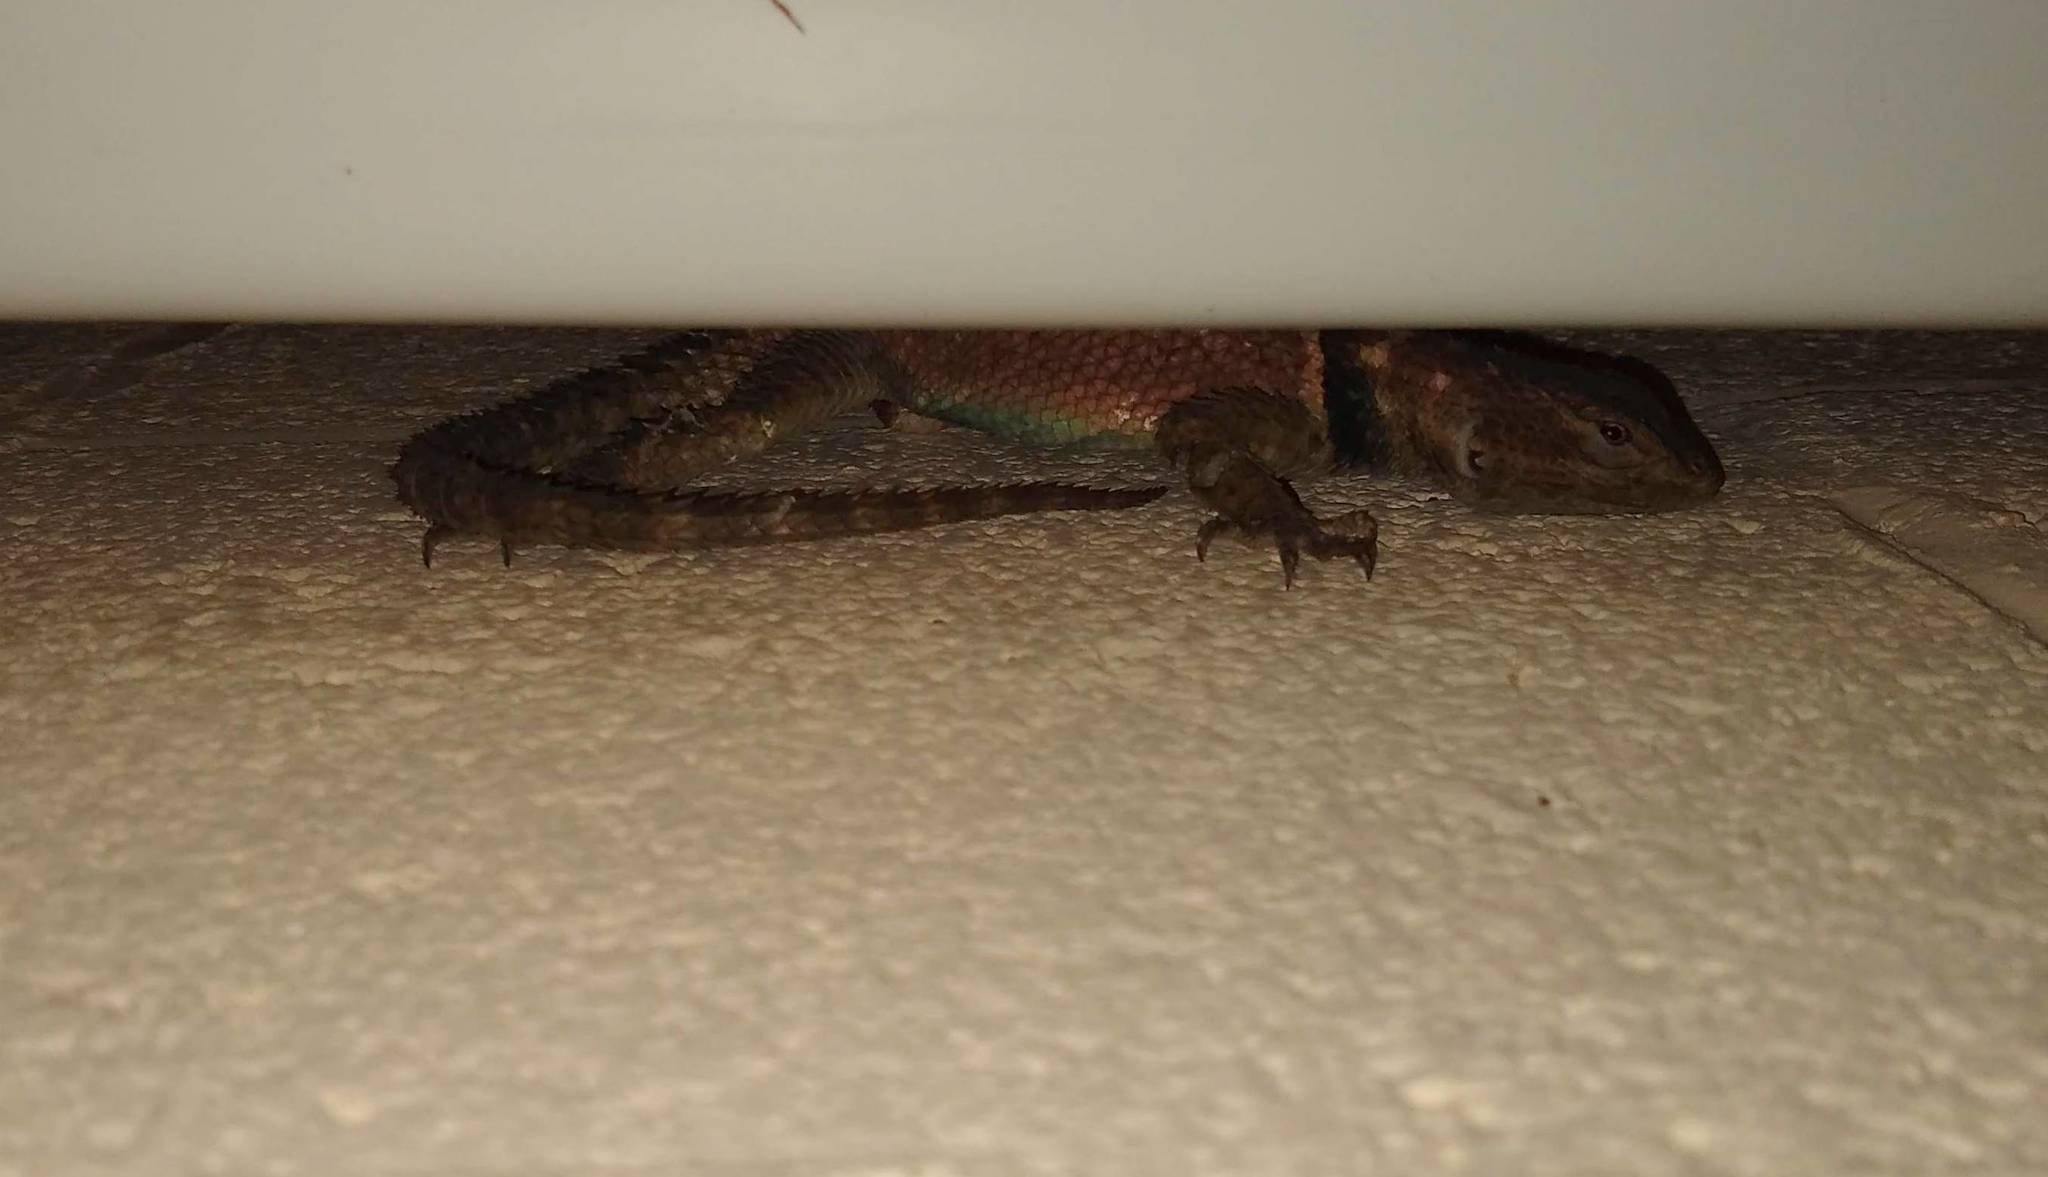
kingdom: Animalia
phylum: Chordata
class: Squamata
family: Phrynosomatidae
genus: Sceloporus
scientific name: Sceloporus cyanogenys
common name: Blue spiny lizard
